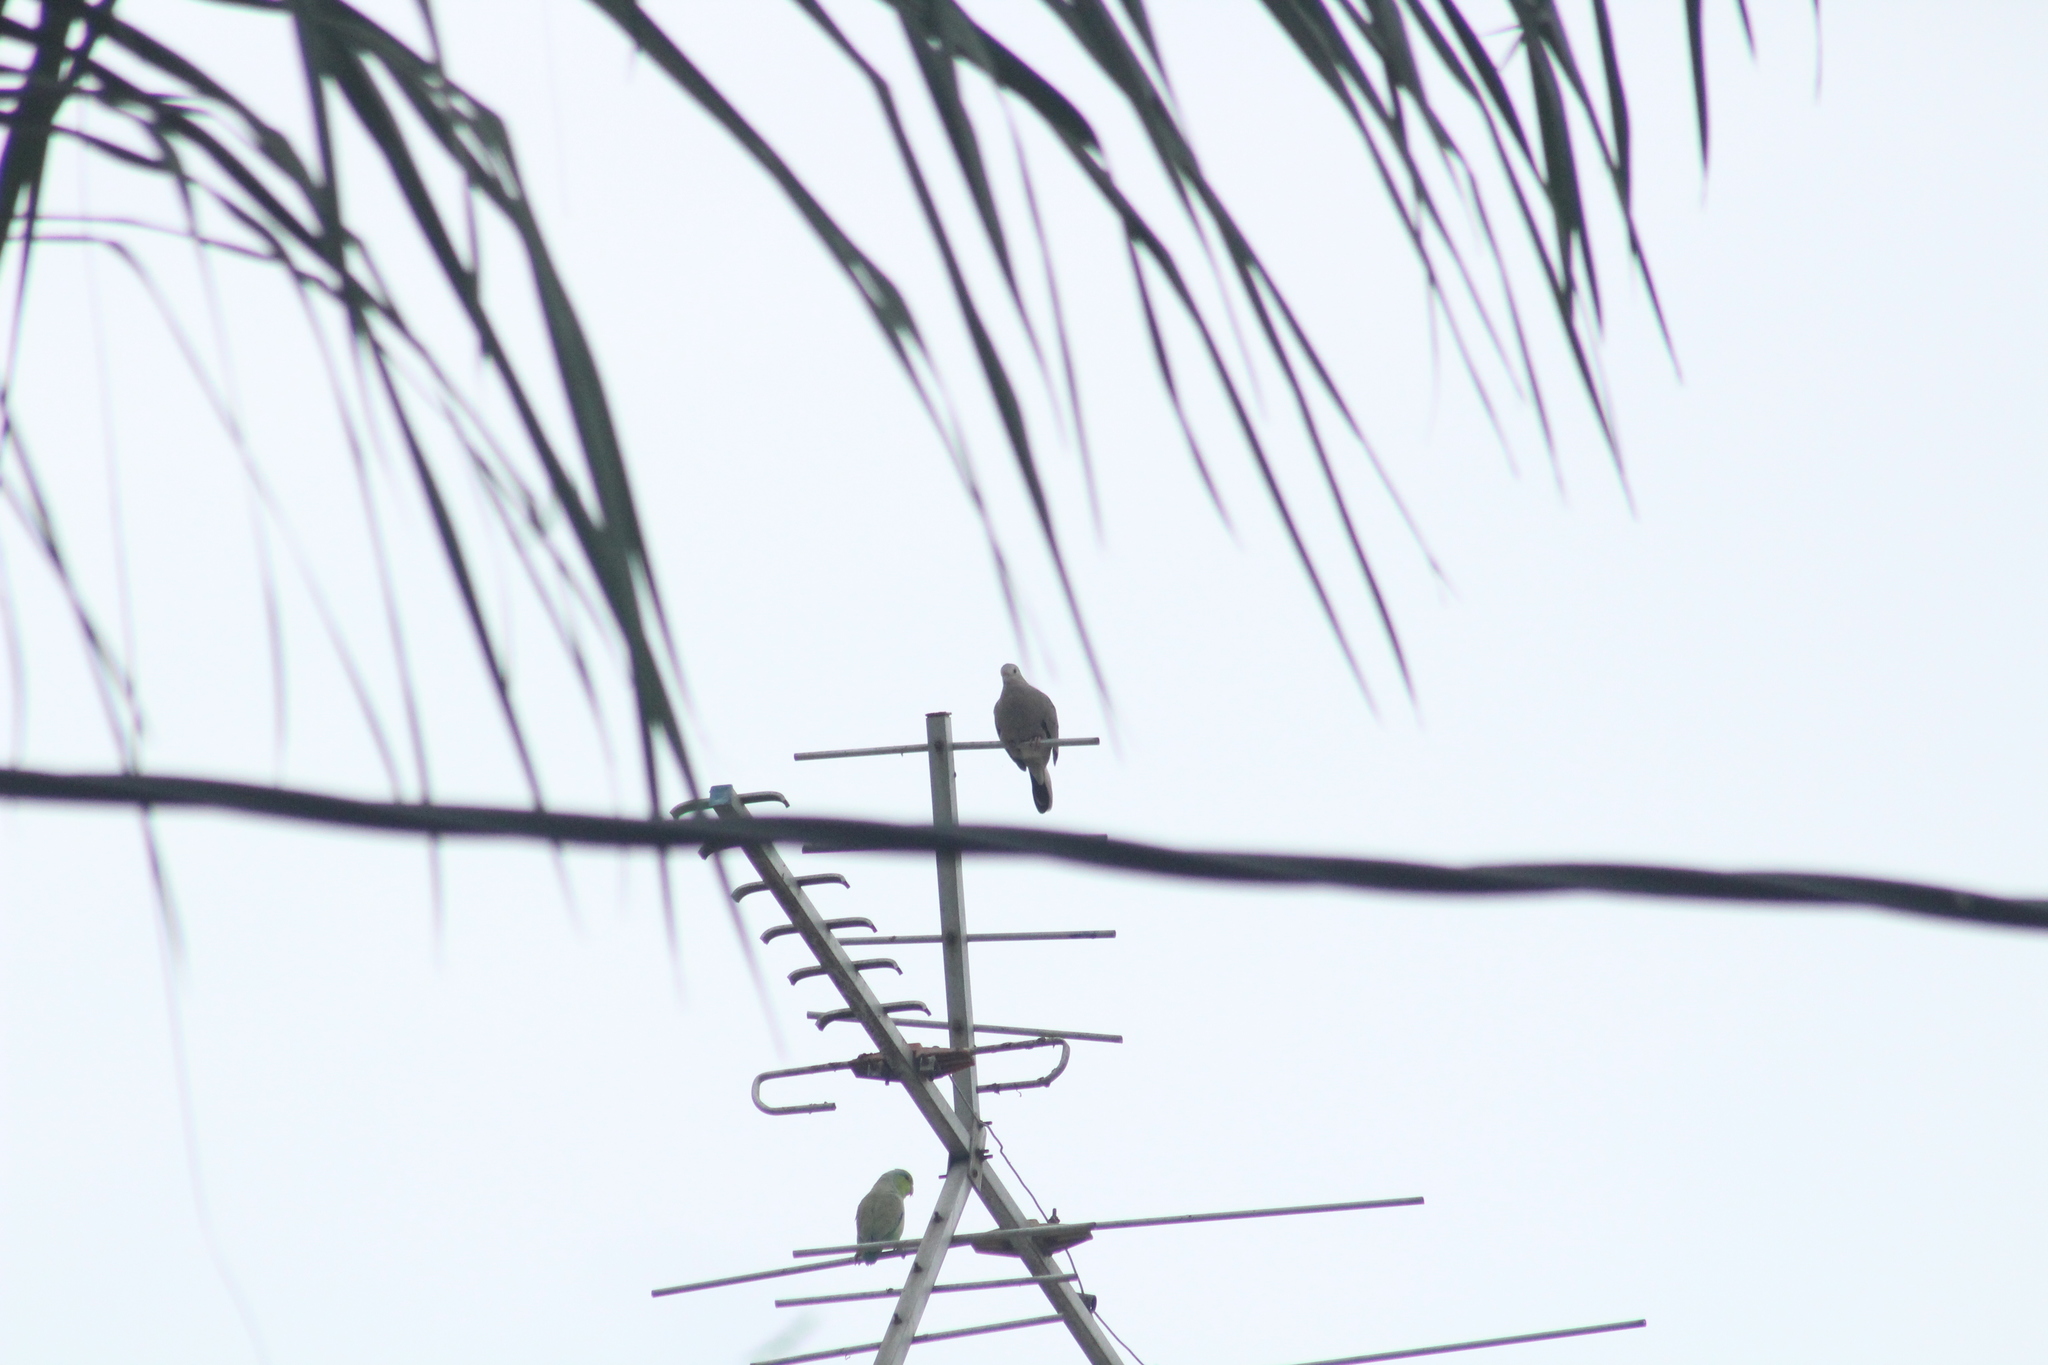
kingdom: Animalia
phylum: Chordata
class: Aves
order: Columbiformes
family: Columbidae
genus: Zenaida
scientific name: Zenaida auriculata
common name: Eared dove
